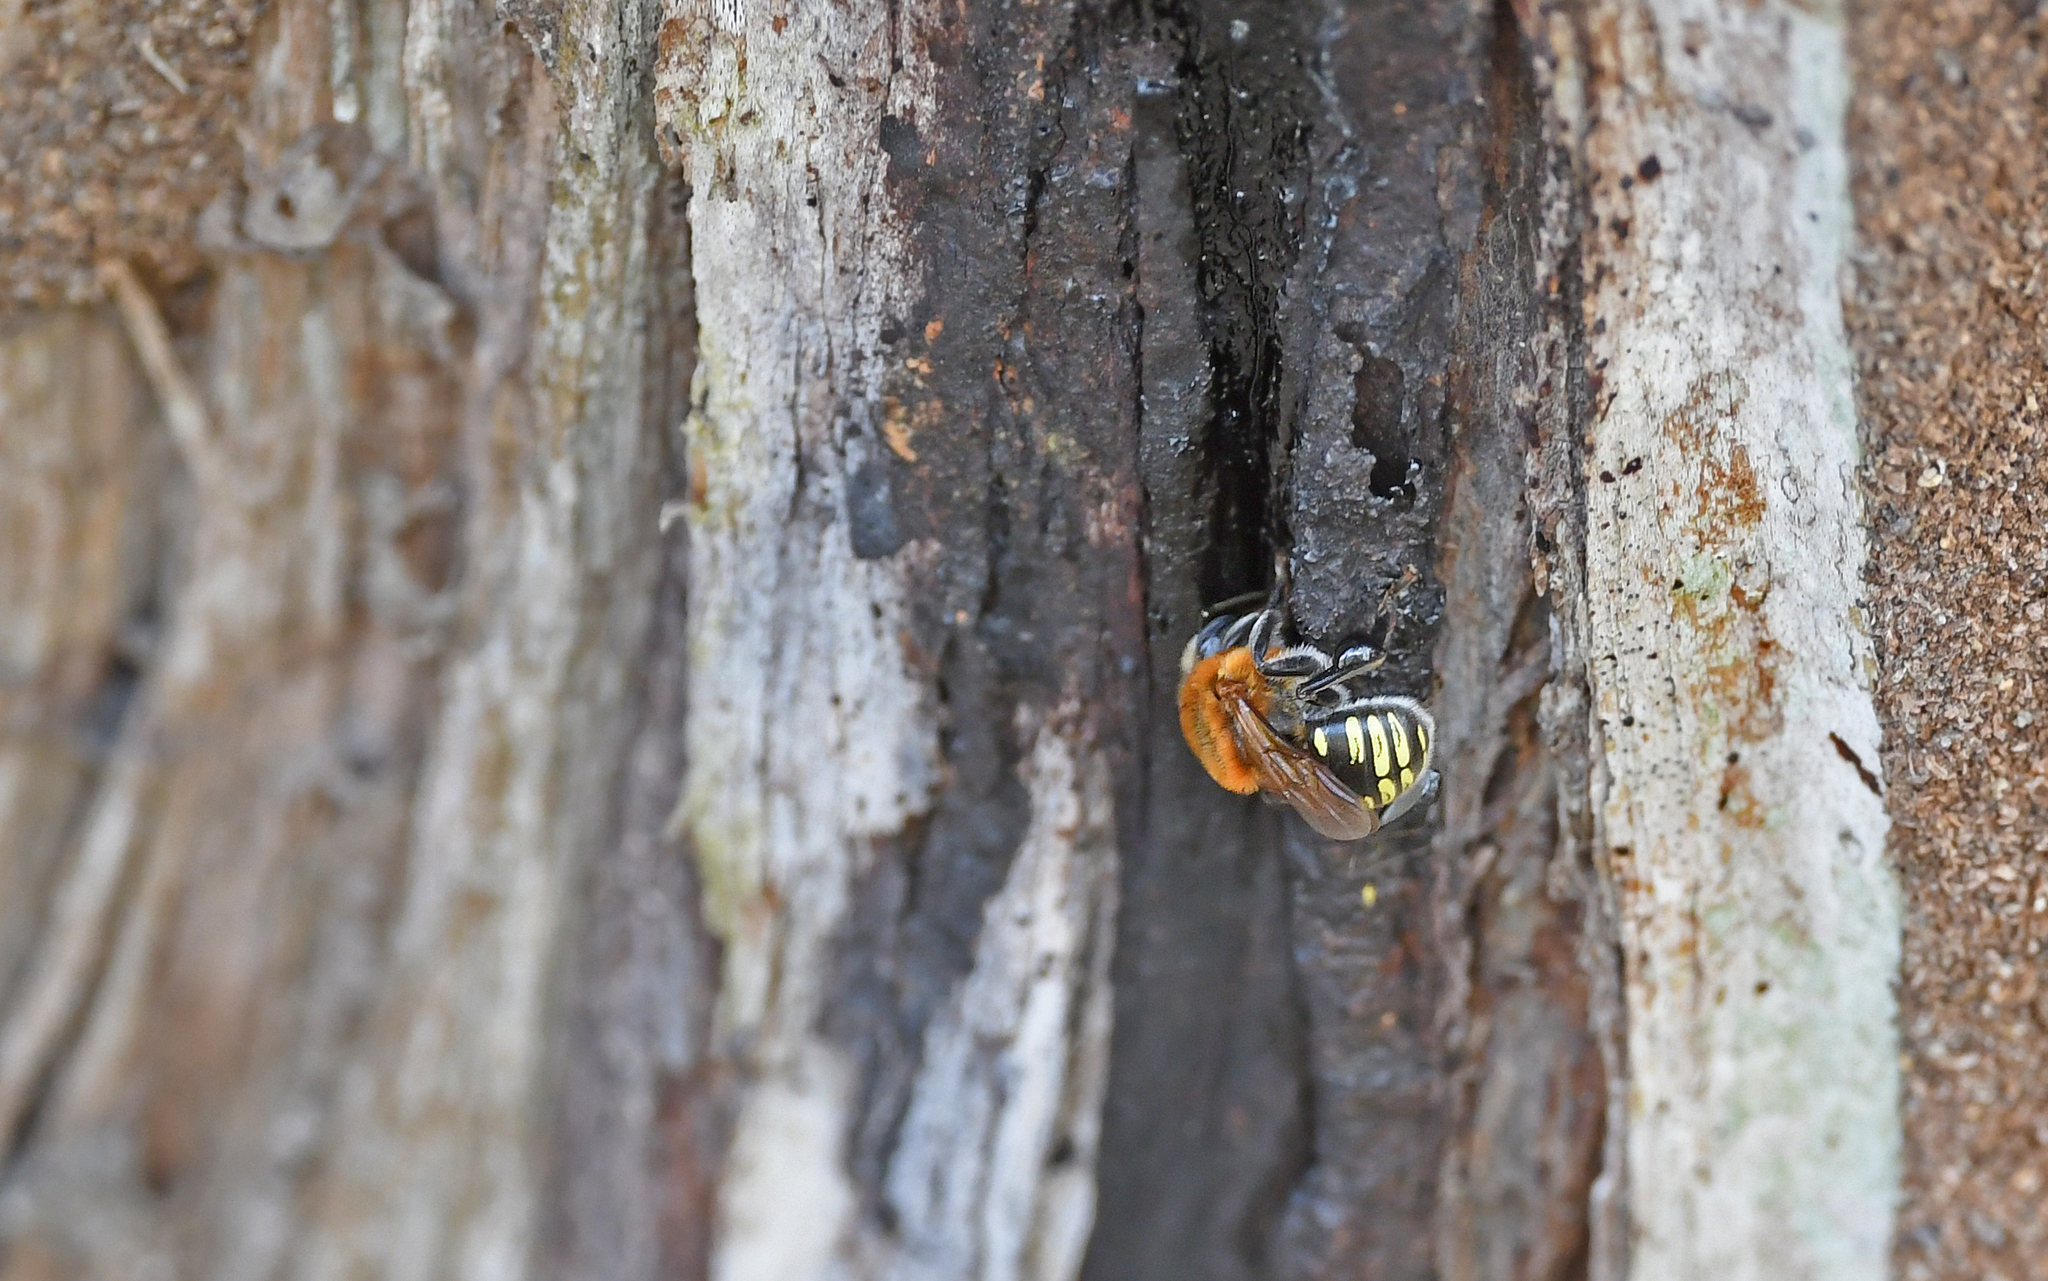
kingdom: Animalia
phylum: Arthropoda
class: Insecta
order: Hymenoptera
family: Apidae
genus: Melipona
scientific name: Melipona favosa
